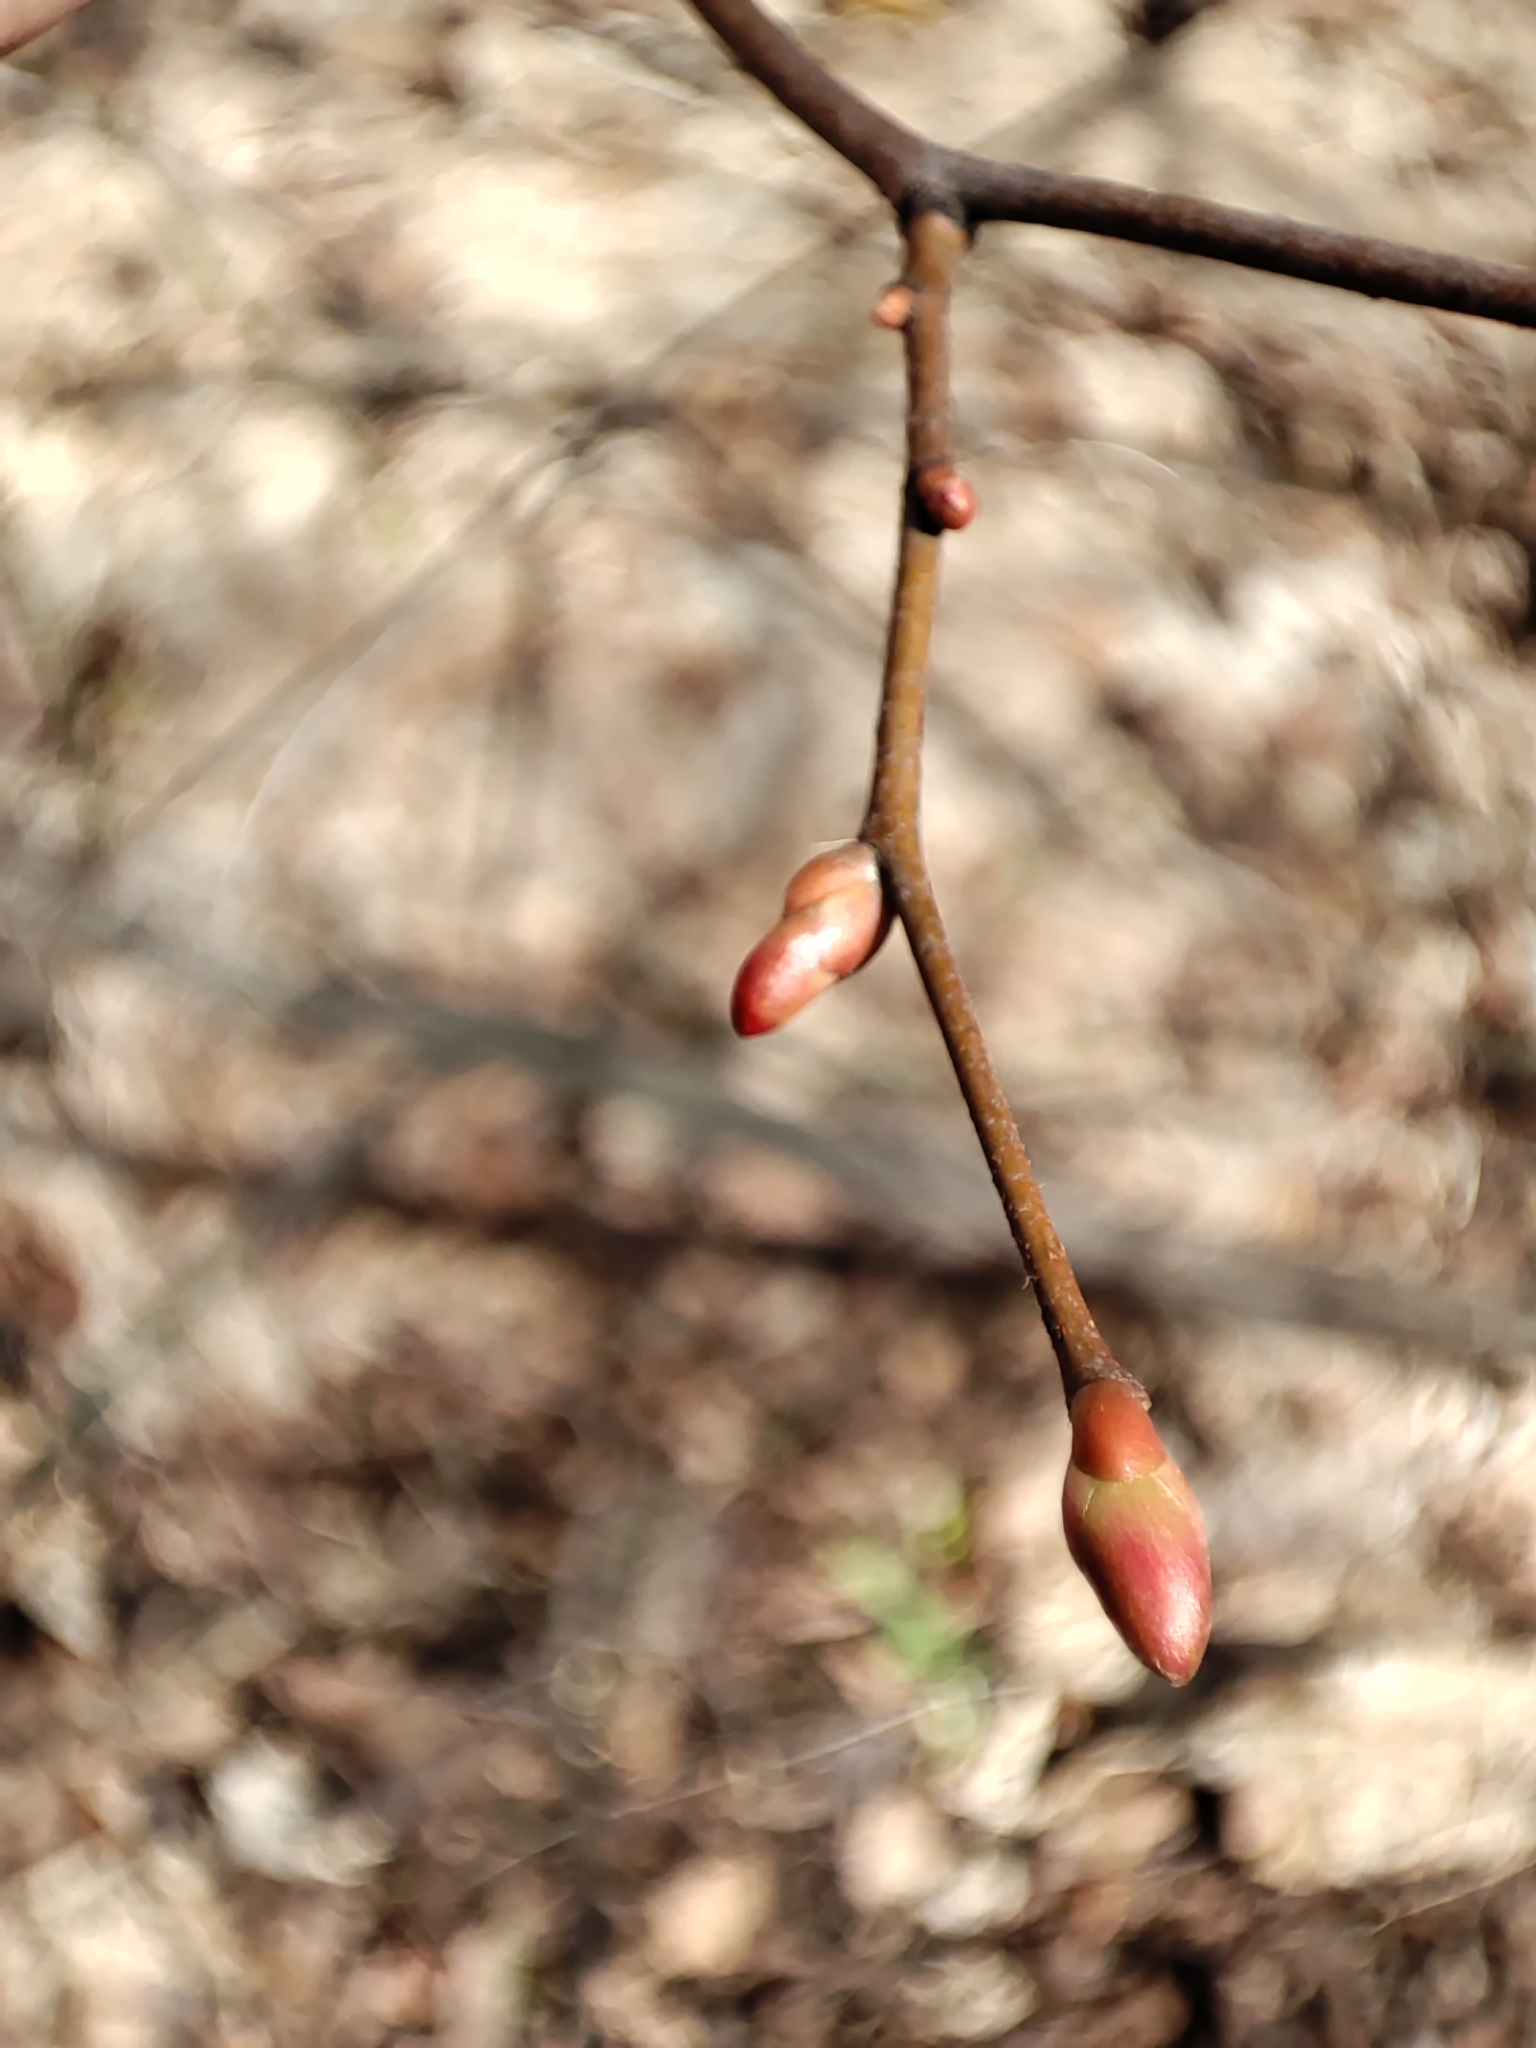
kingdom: Plantae
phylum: Tracheophyta
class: Magnoliopsida
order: Malvales
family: Malvaceae
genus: Tilia
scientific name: Tilia cordata
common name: Small-leaved lime
